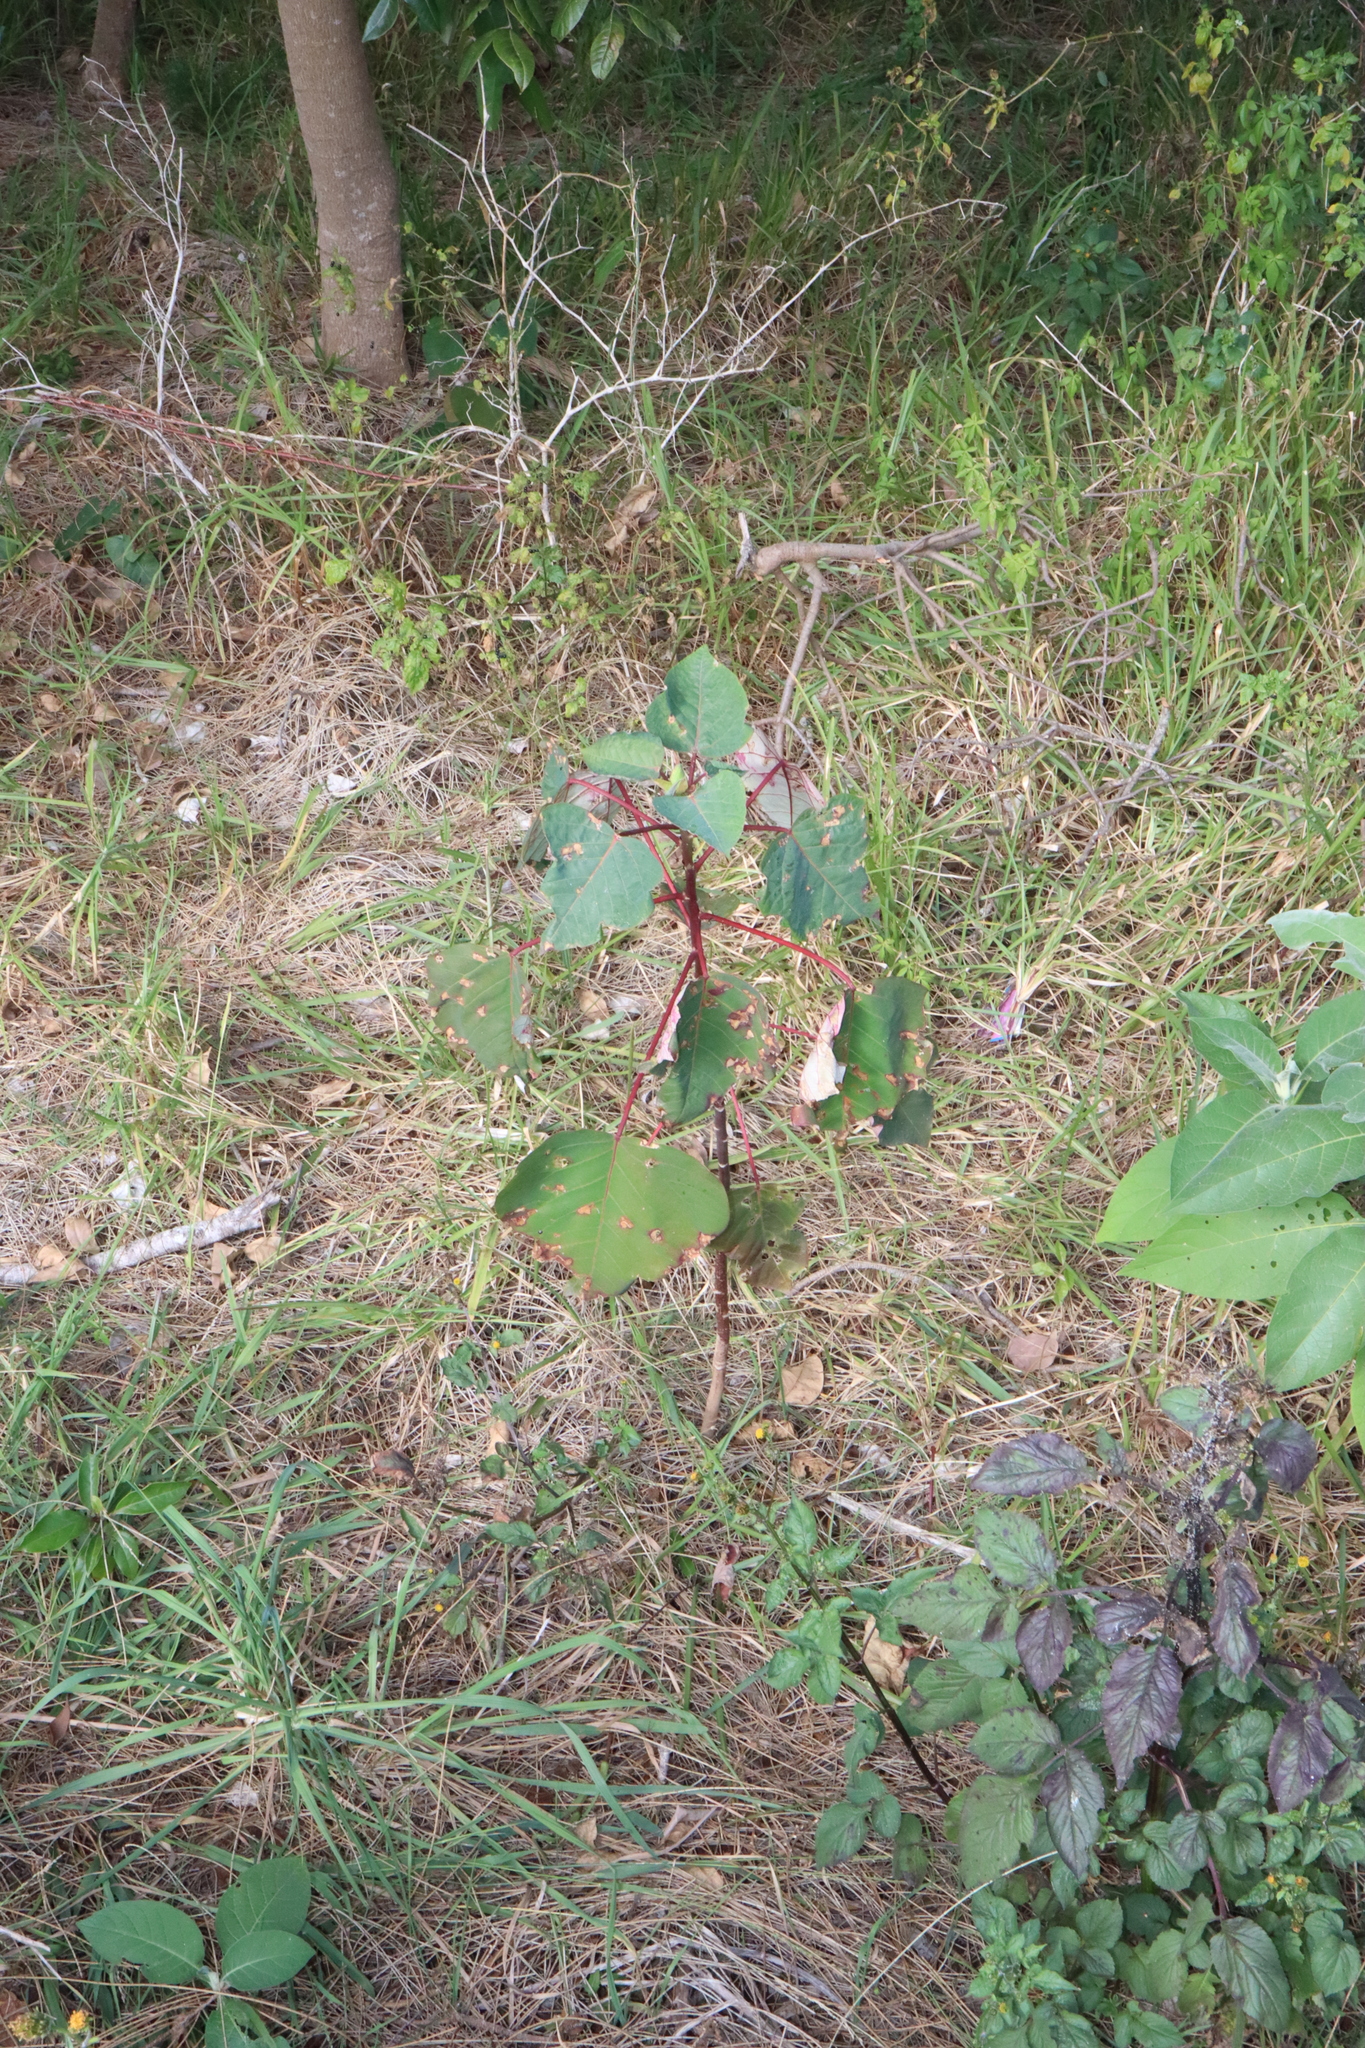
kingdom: Plantae
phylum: Tracheophyta
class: Magnoliopsida
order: Malpighiales
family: Euphorbiaceae
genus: Homalanthus
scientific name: Homalanthus populifolius
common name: Queensland poplar
